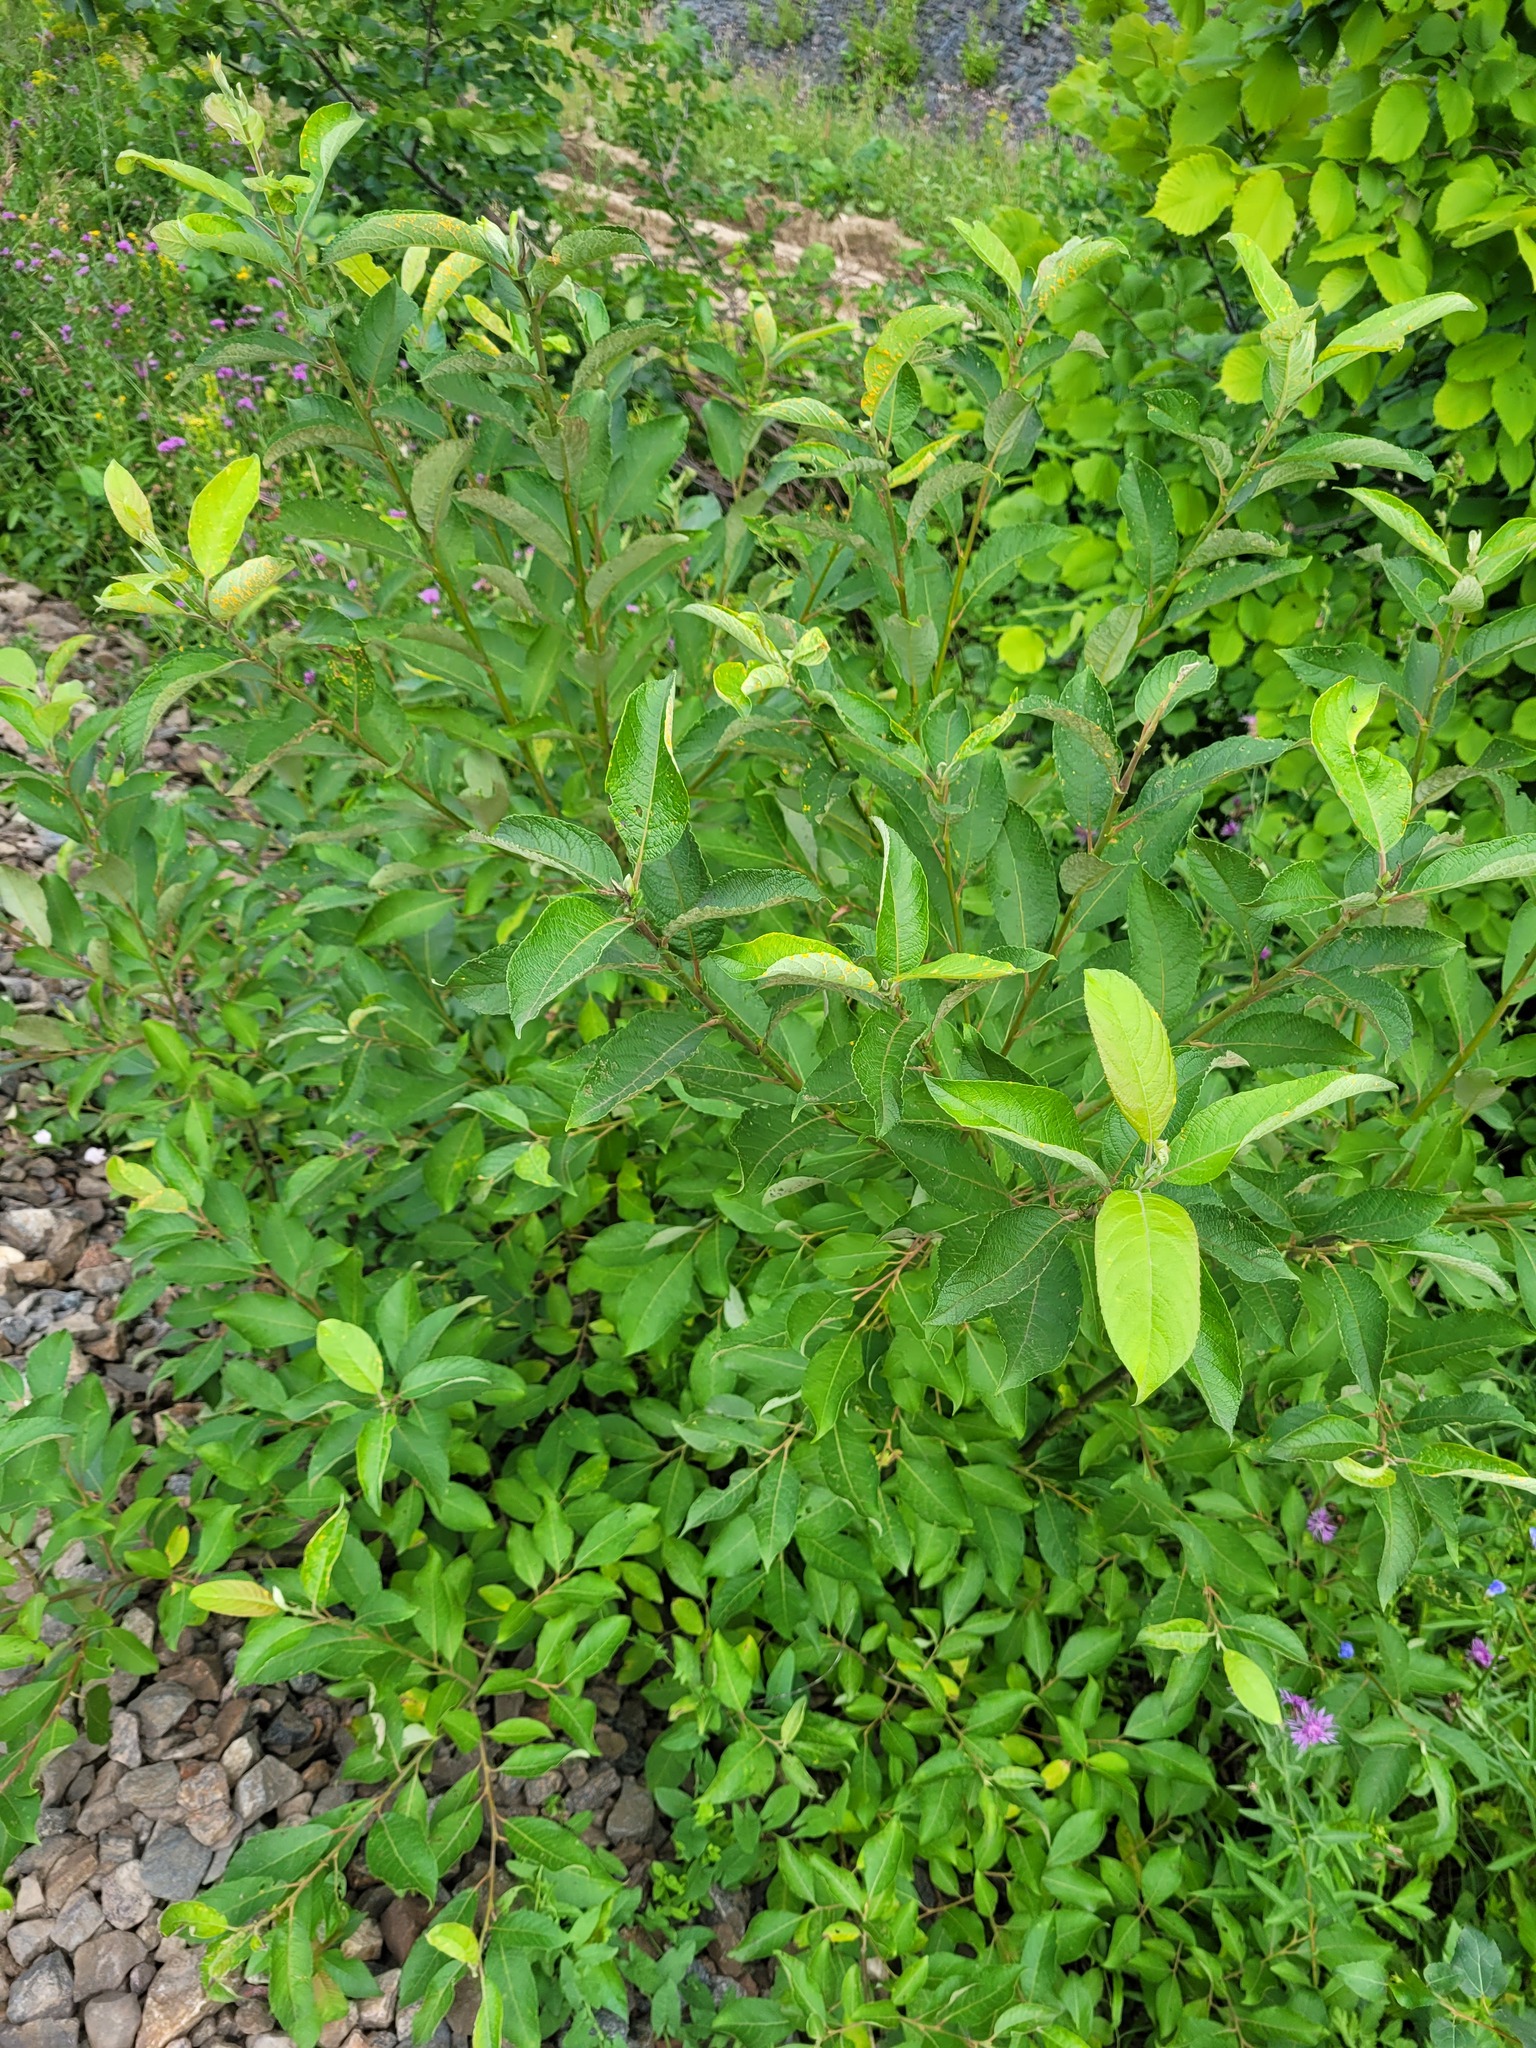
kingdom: Plantae
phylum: Tracheophyta
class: Magnoliopsida
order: Malpighiales
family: Salicaceae
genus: Salix
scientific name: Salix caprea
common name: Goat willow
